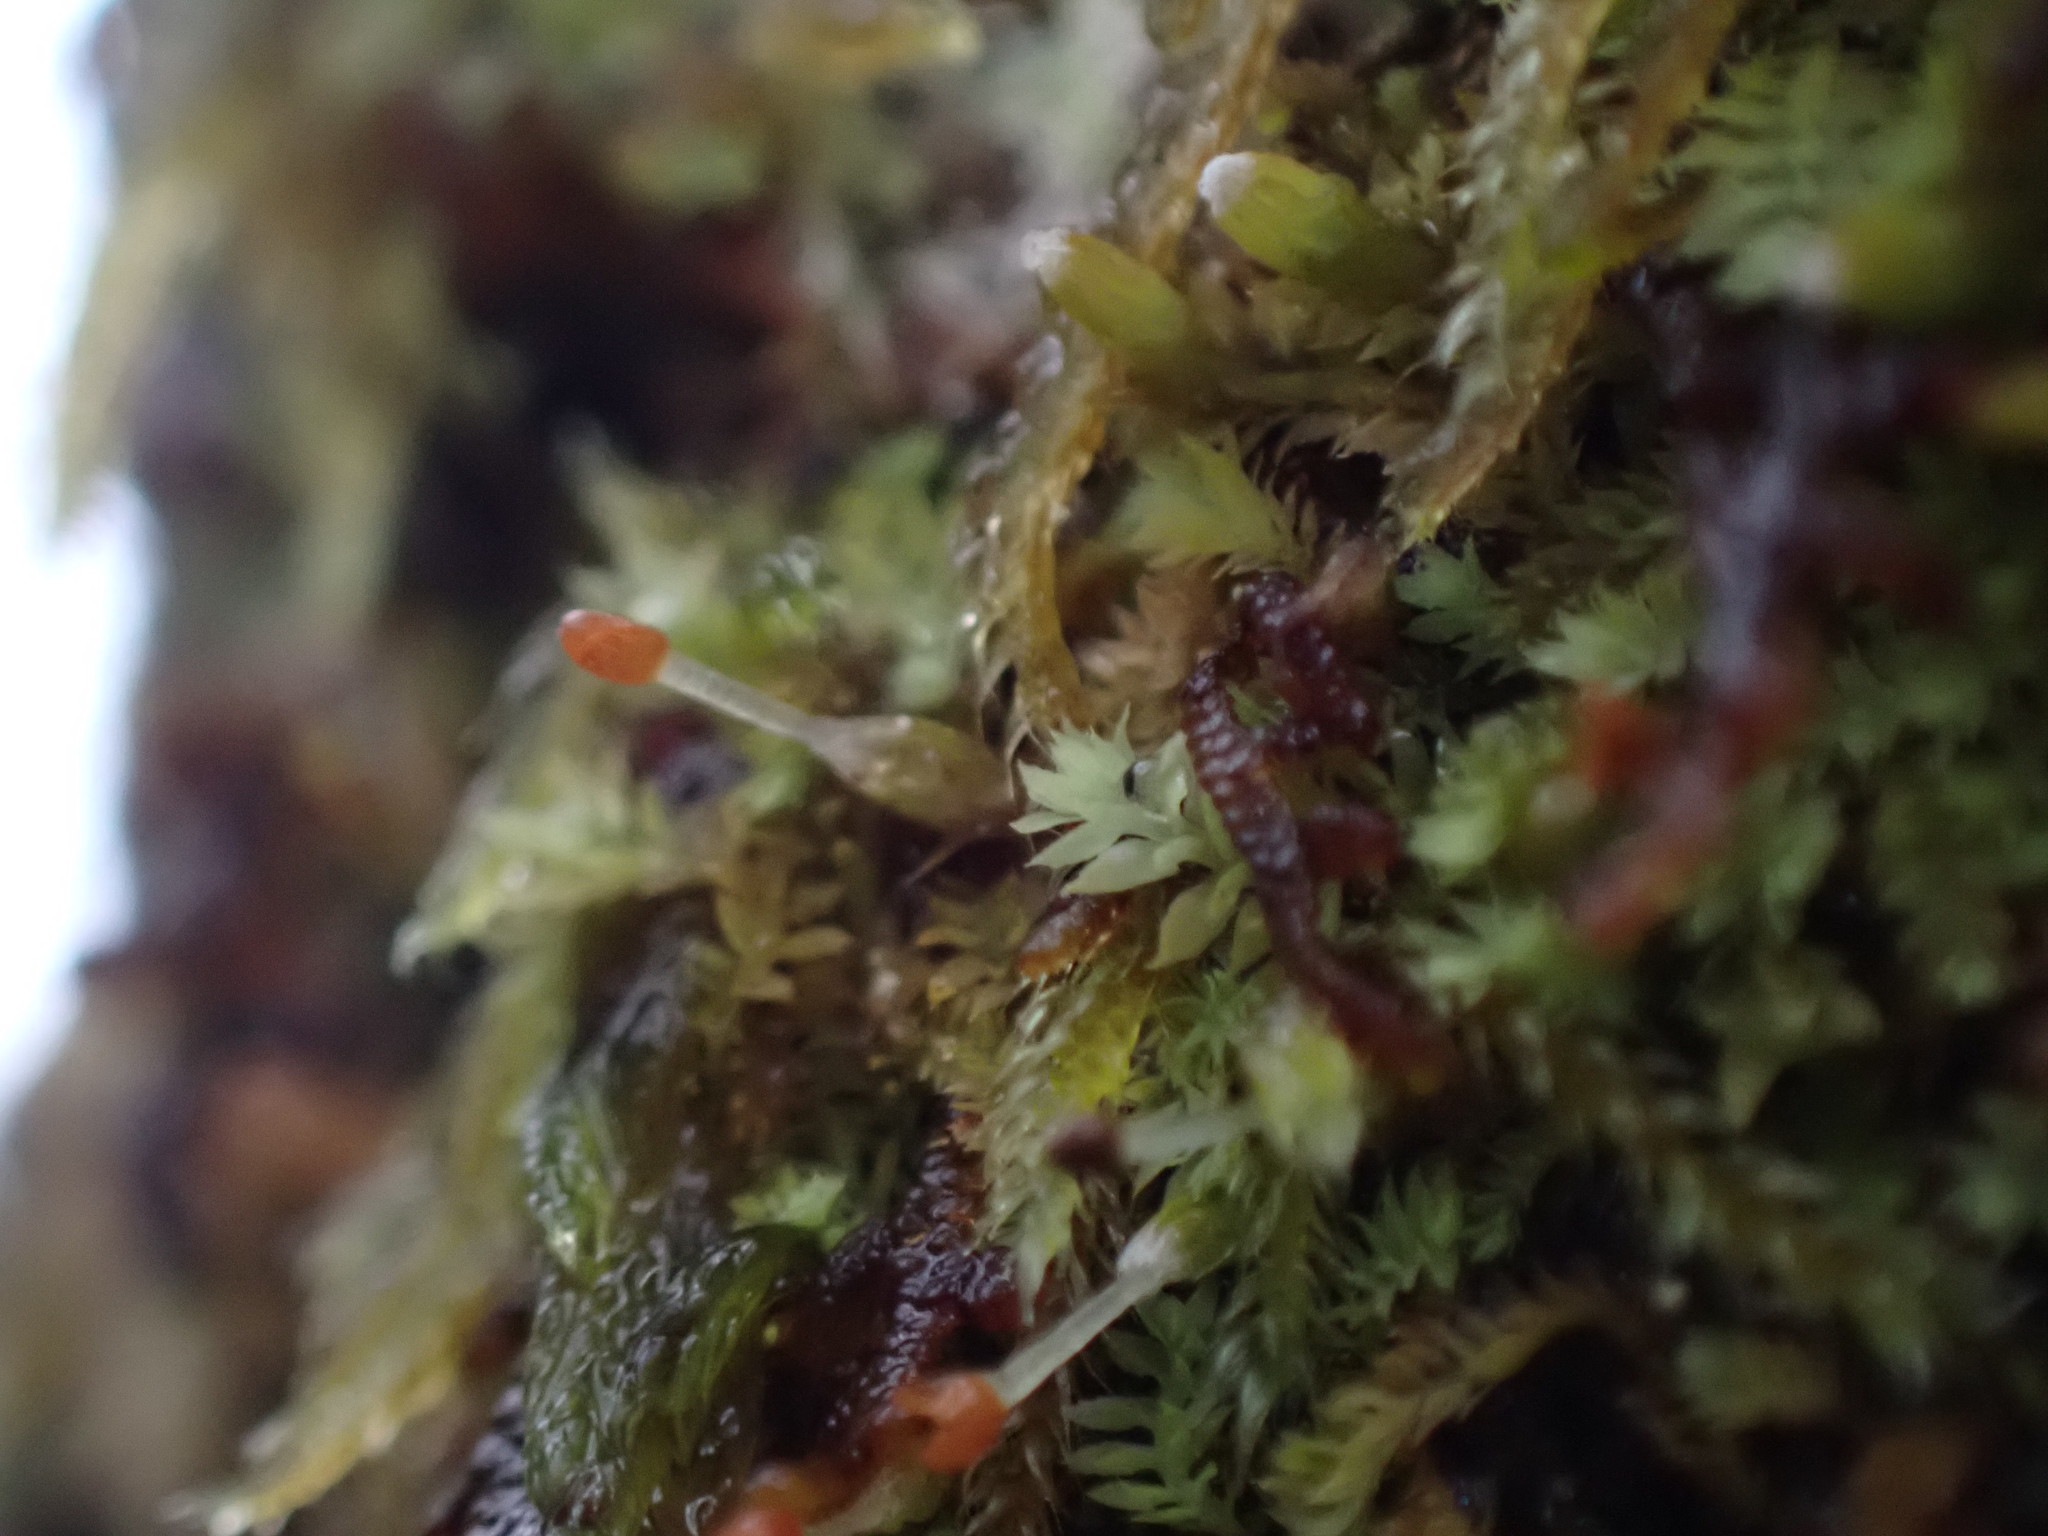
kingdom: Plantae
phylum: Marchantiophyta
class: Jungermanniopsida
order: Jungermanniales
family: Scapaniaceae
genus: Douinia
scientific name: Douinia ovata
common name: Waxy earwort
